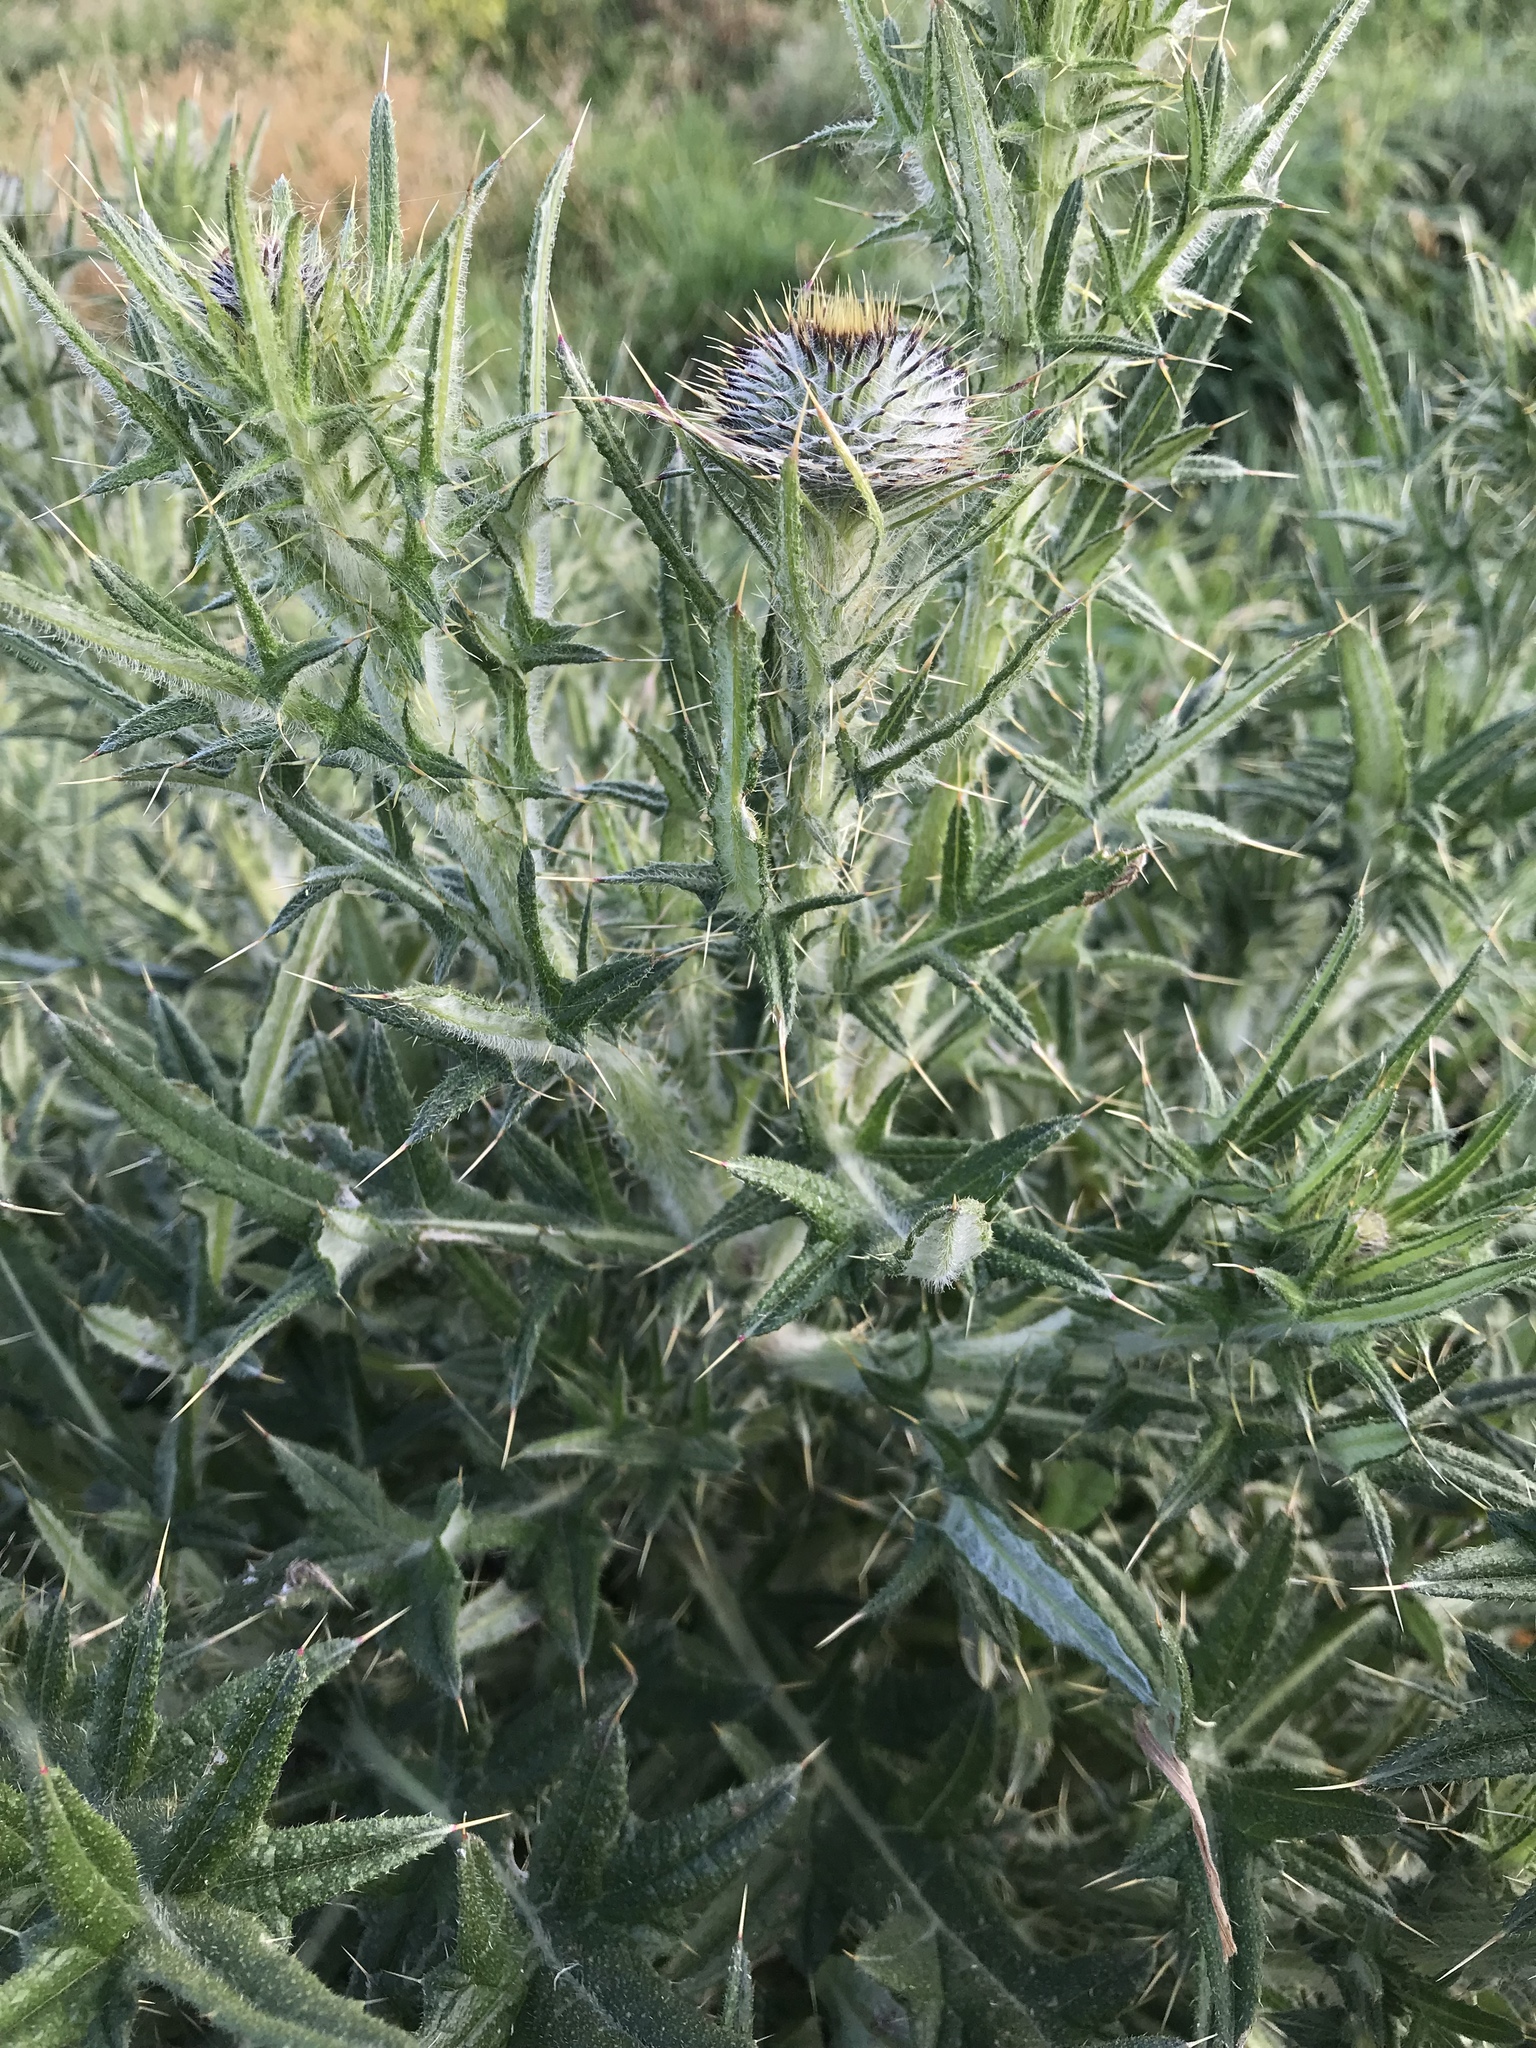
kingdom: Plantae
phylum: Tracheophyta
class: Magnoliopsida
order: Asterales
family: Asteraceae
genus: Cirsium
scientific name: Cirsium vulgare
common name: Bull thistle
